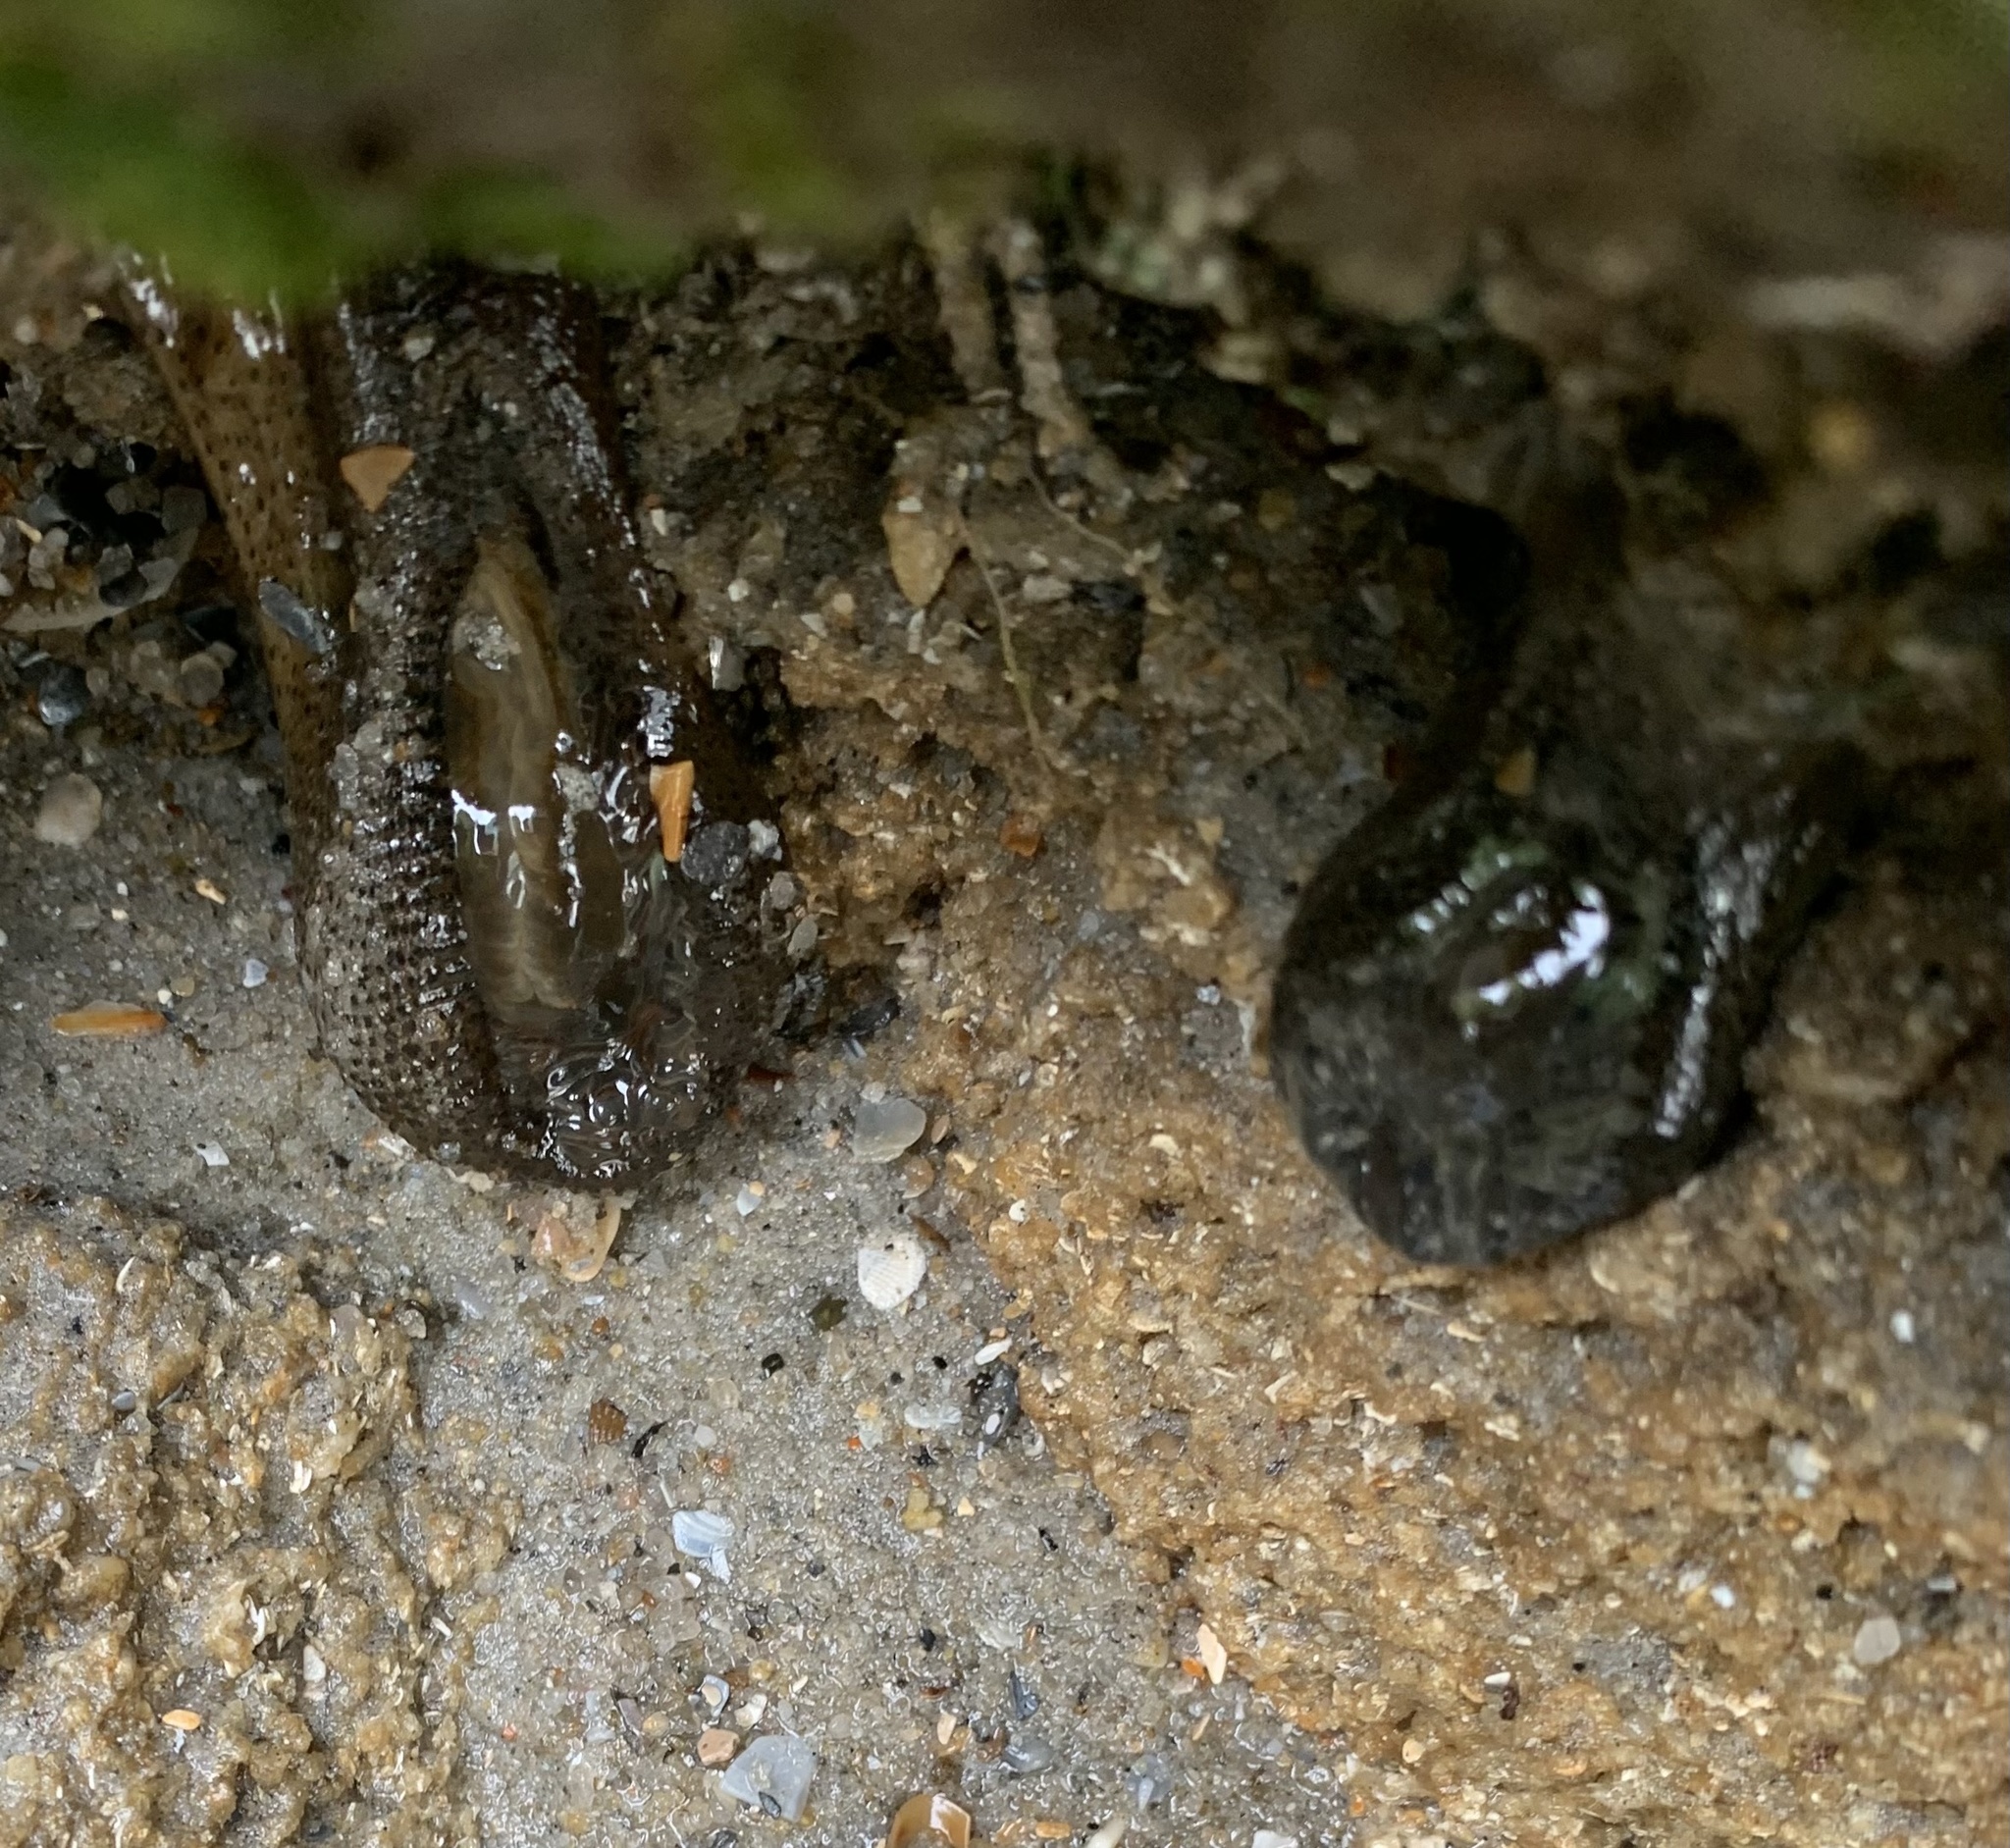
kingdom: Animalia
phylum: Cnidaria
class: Anthozoa
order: Actiniaria
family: Actiniidae
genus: Bunodosoma
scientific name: Bunodosoma cavernatum
